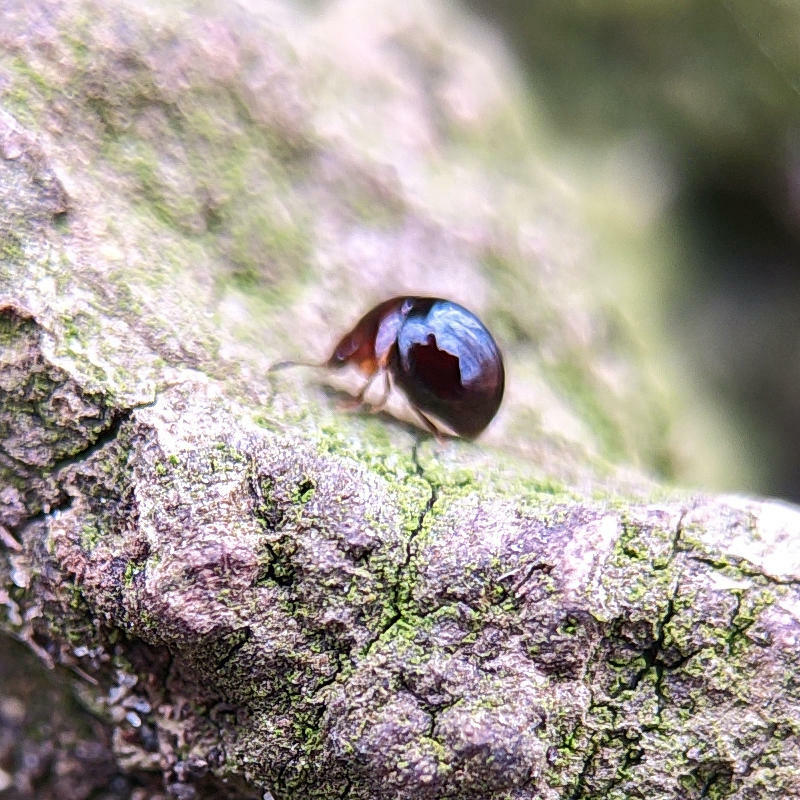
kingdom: Animalia
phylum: Arthropoda
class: Insecta
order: Coleoptera
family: Leiodidae
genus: Agathidium
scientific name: Agathidium
